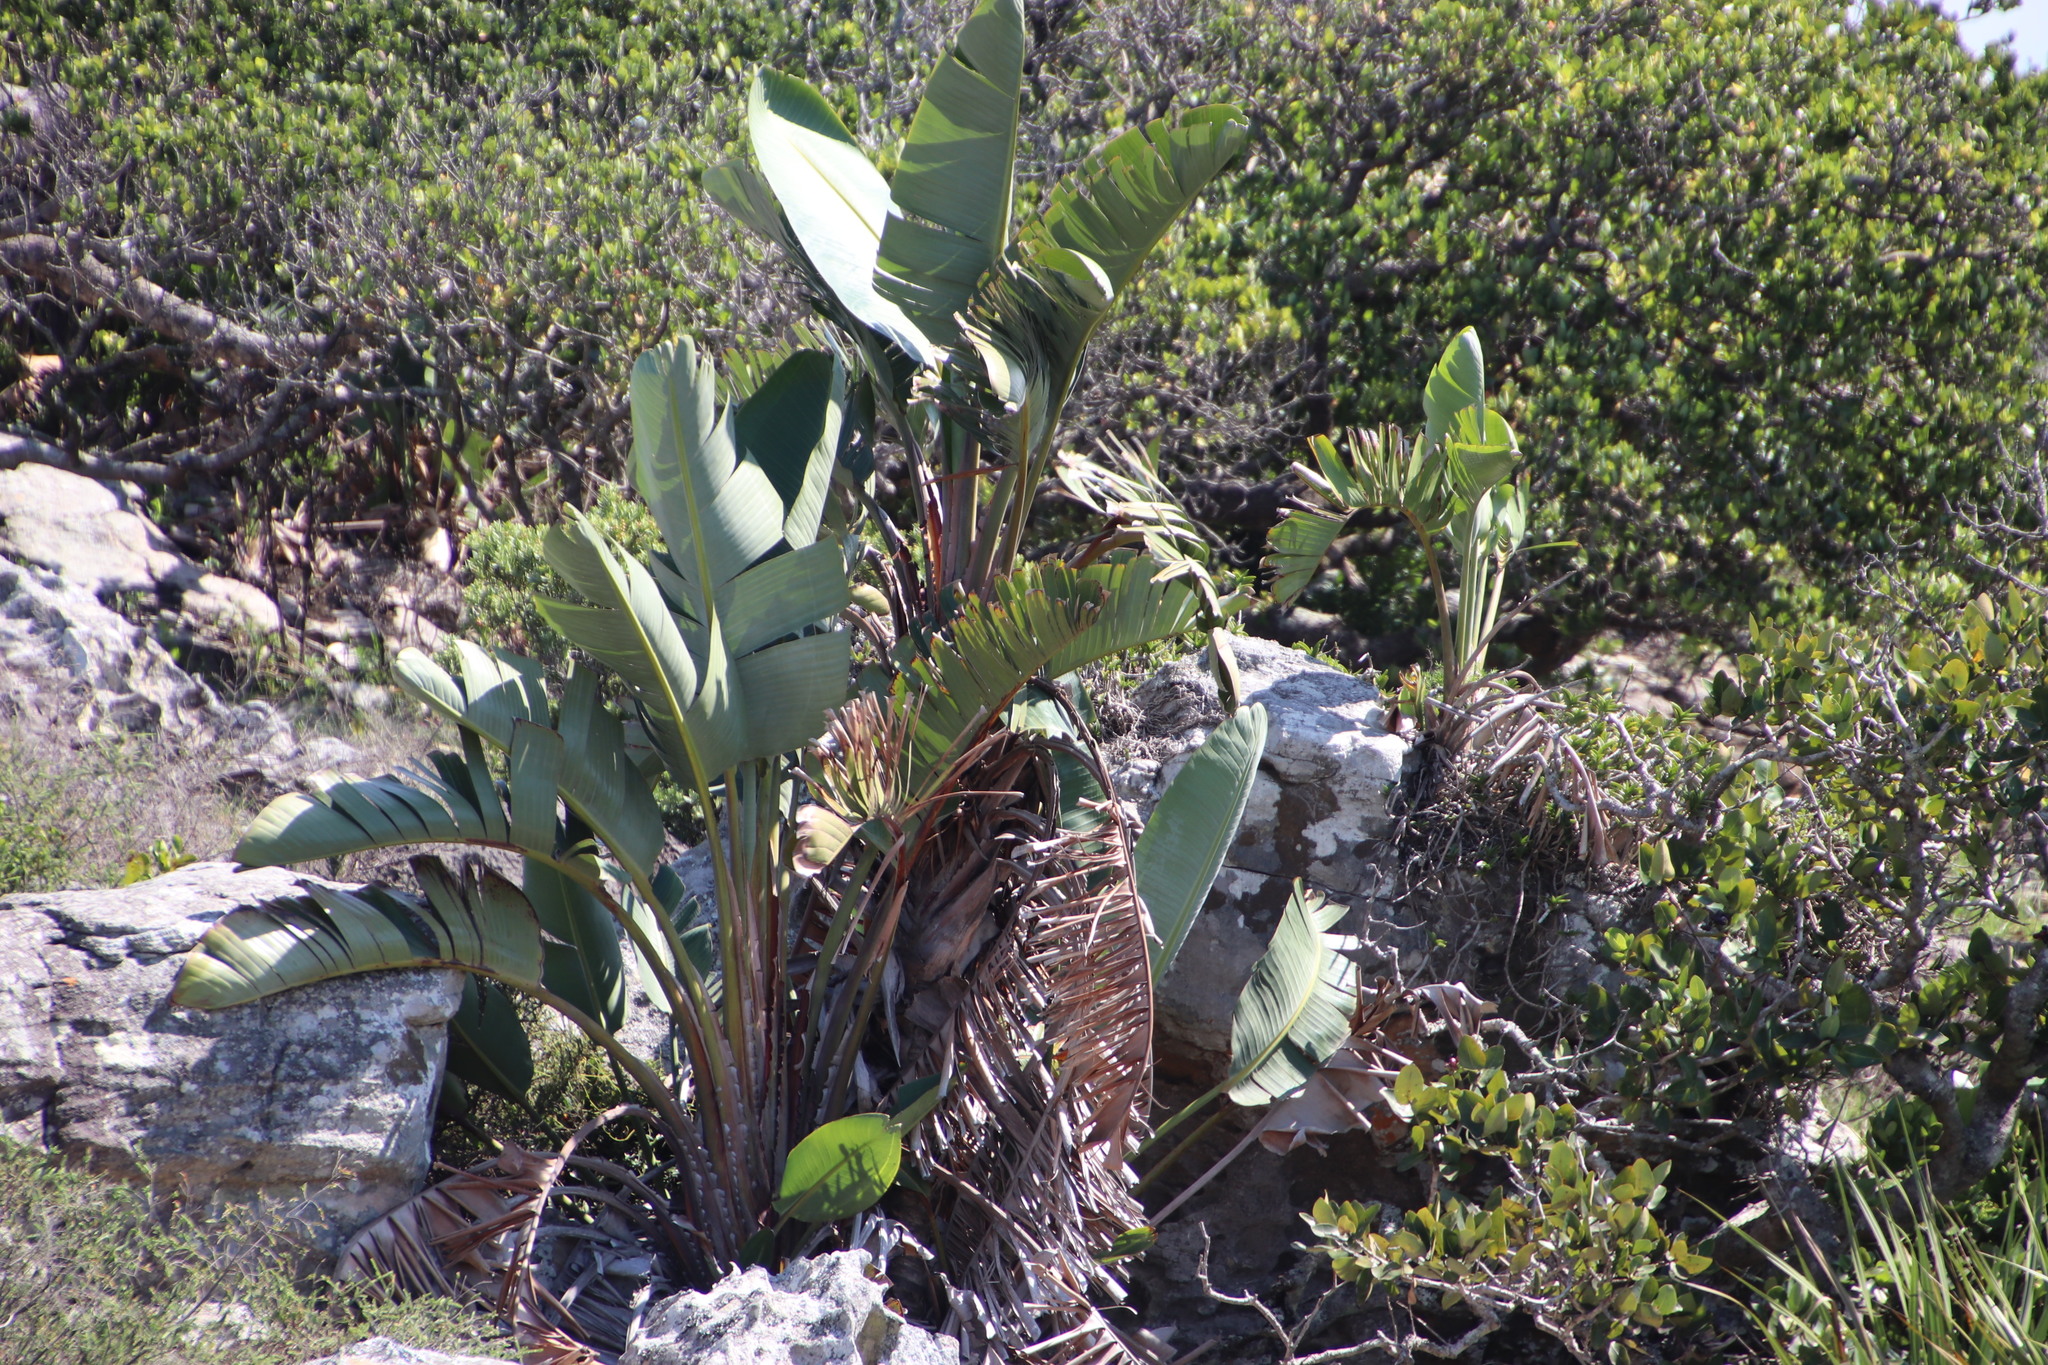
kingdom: Plantae
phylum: Tracheophyta
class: Liliopsida
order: Zingiberales
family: Strelitziaceae
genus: Strelitzia
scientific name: Strelitzia nicolai
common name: Bird-of-paradise tree
